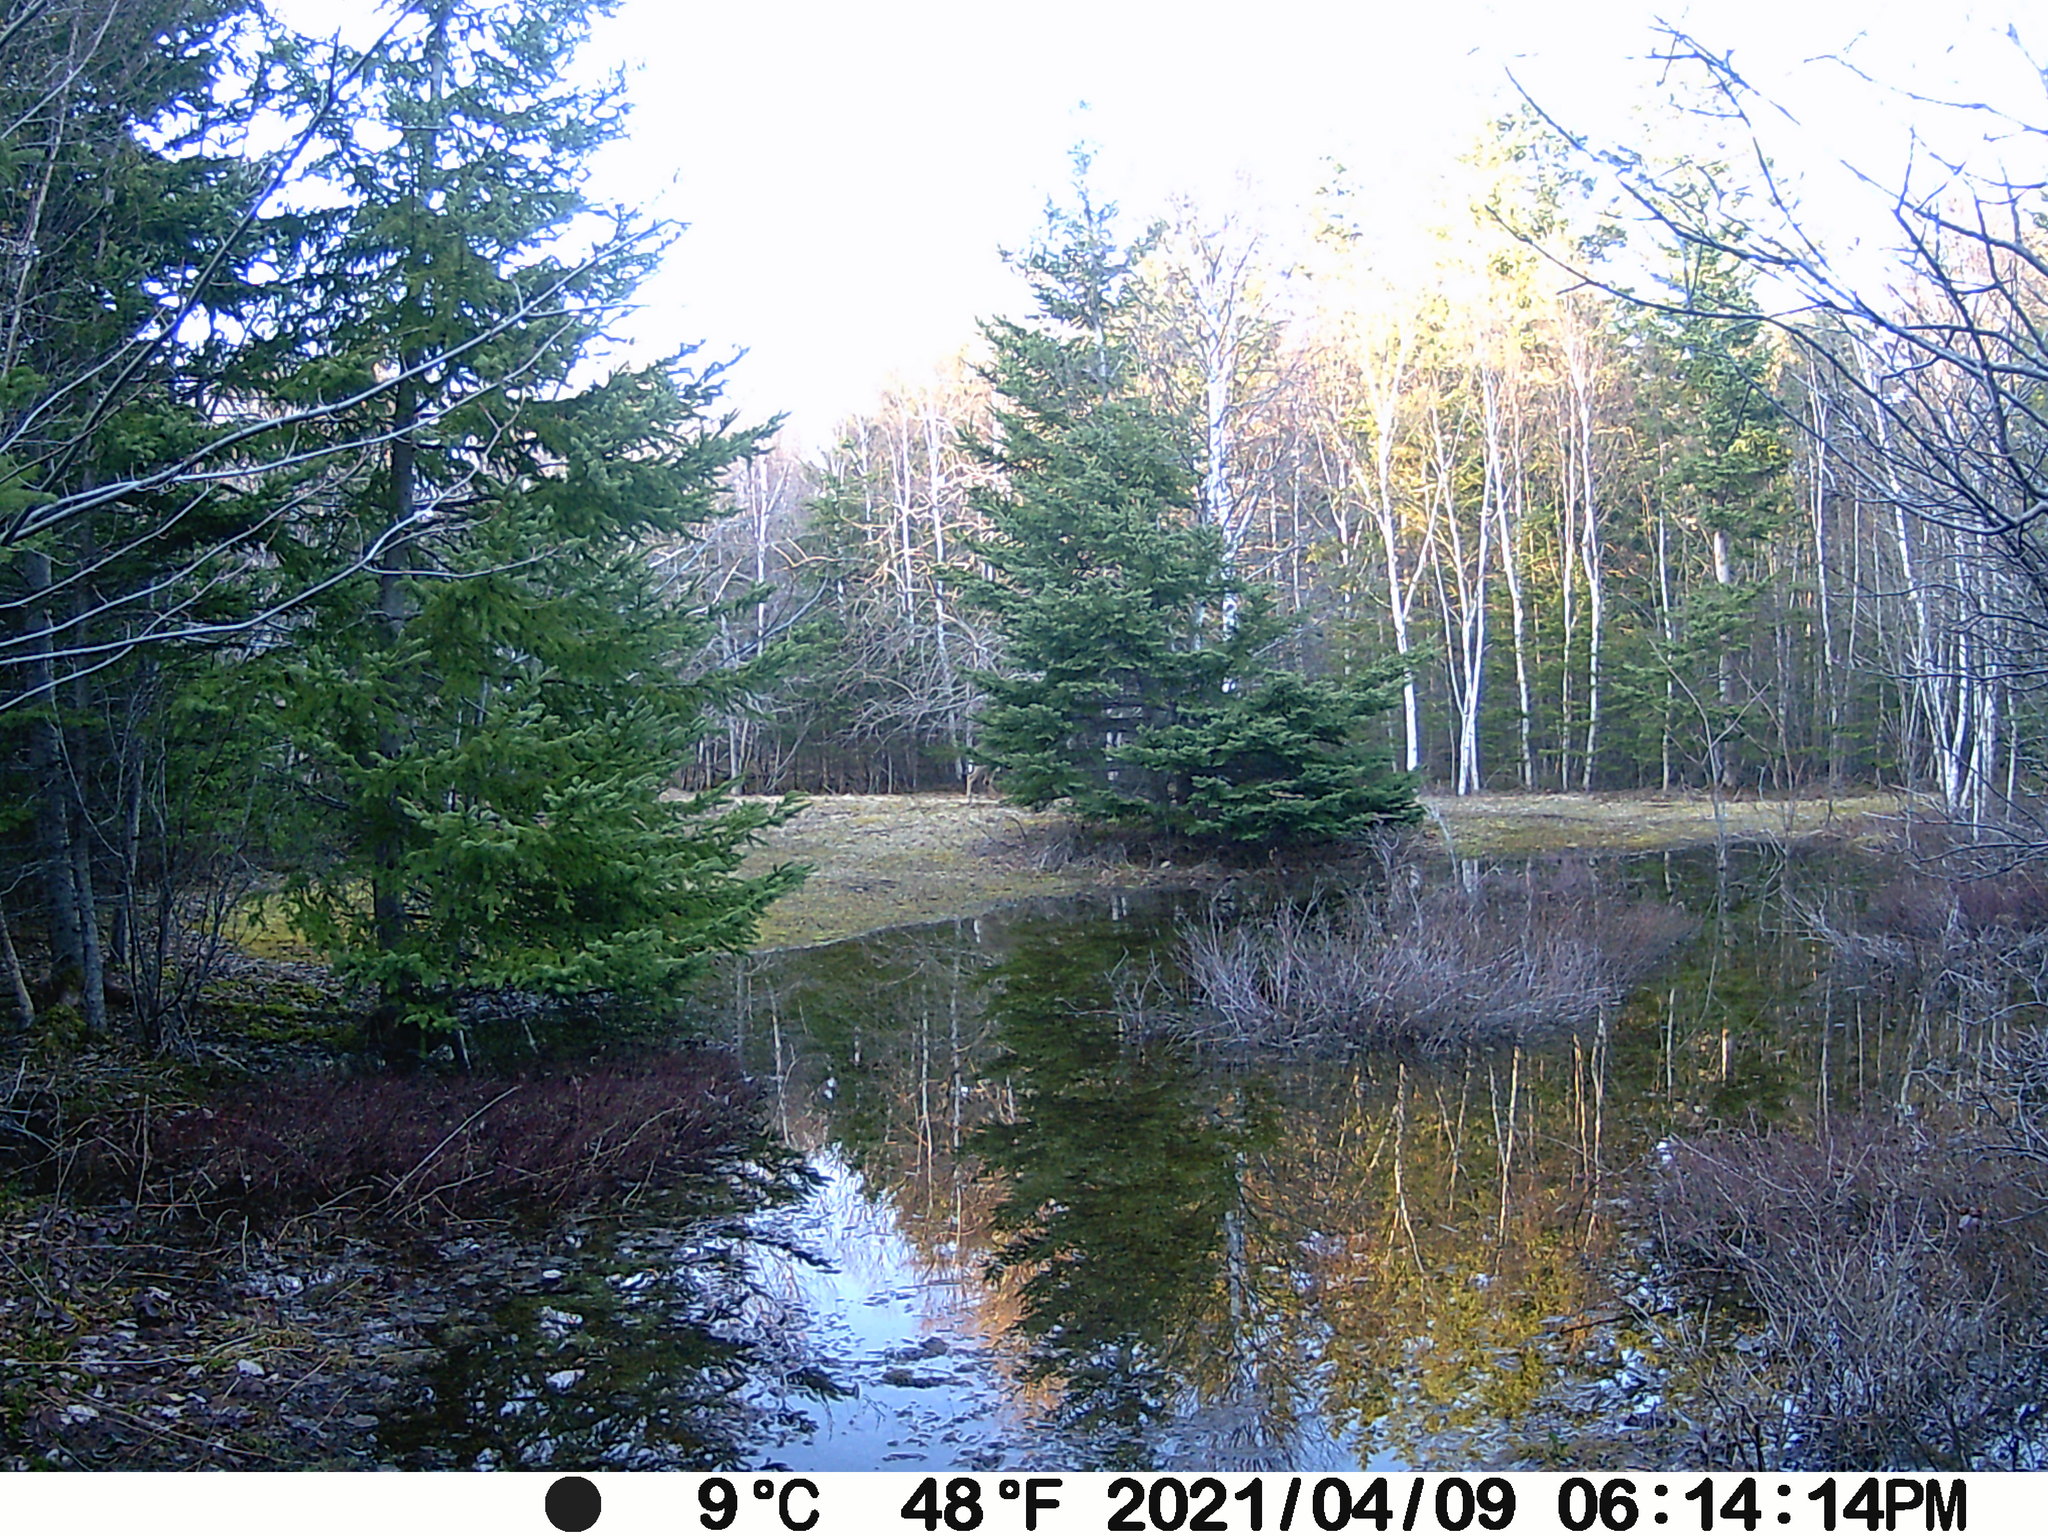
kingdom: Animalia
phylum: Chordata
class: Mammalia
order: Artiodactyla
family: Cervidae
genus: Odocoileus
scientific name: Odocoileus virginianus
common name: White-tailed deer
